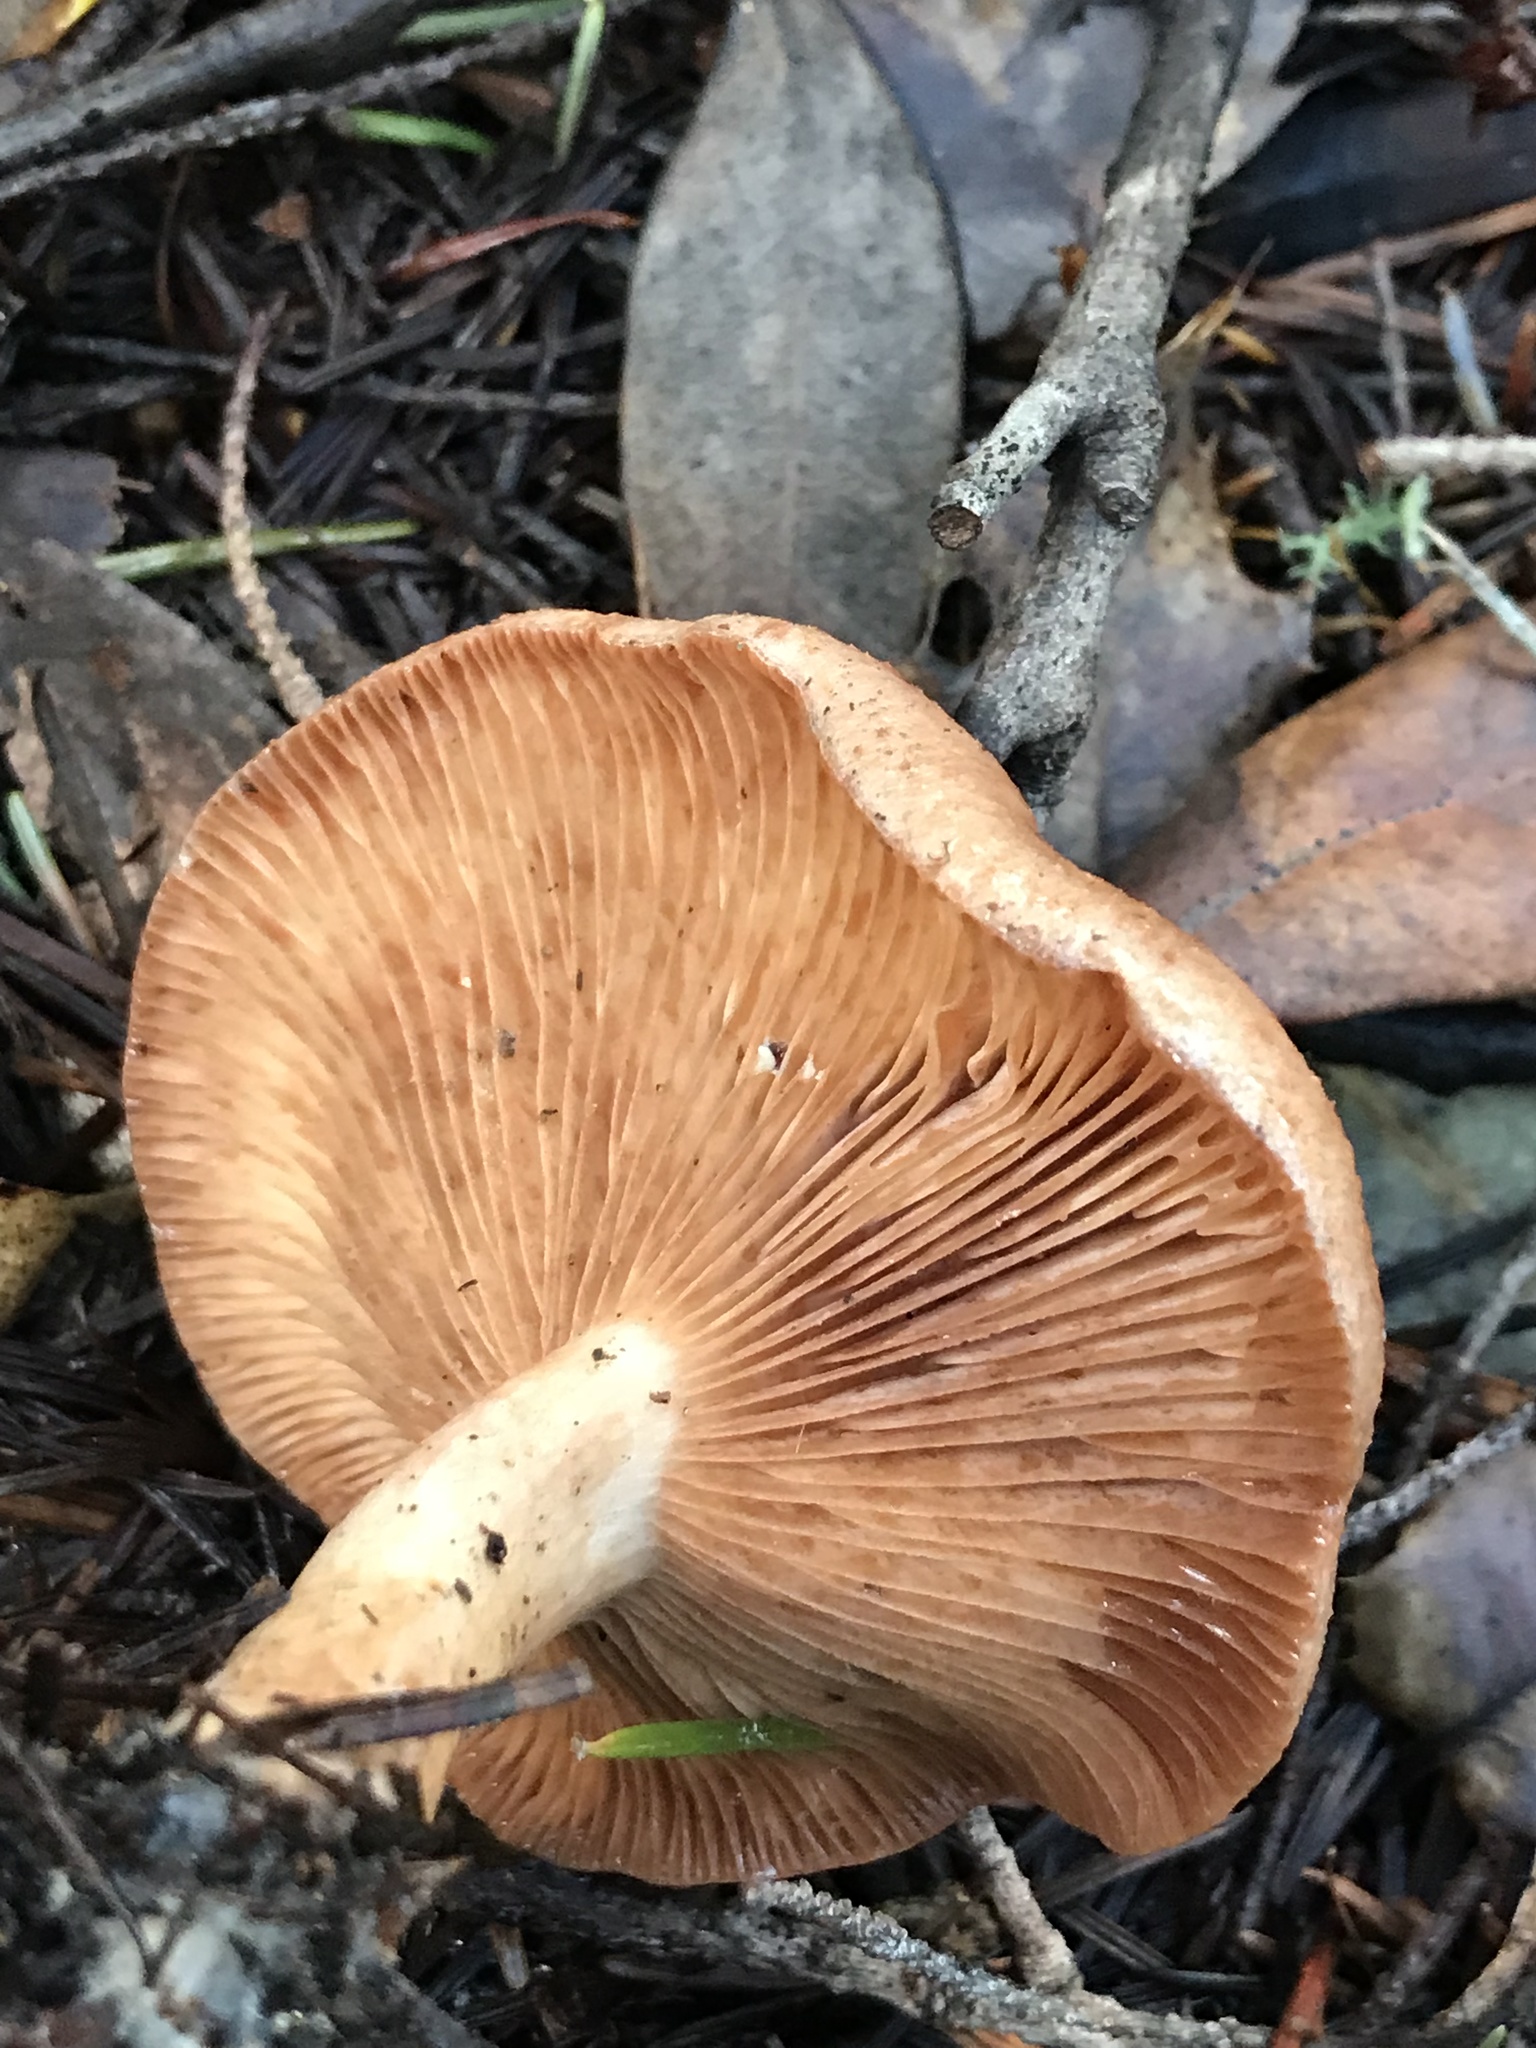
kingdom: Fungi
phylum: Basidiomycota
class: Agaricomycetes
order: Russulales
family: Russulaceae
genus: Lactarius
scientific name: Lactarius xanthogalactus
